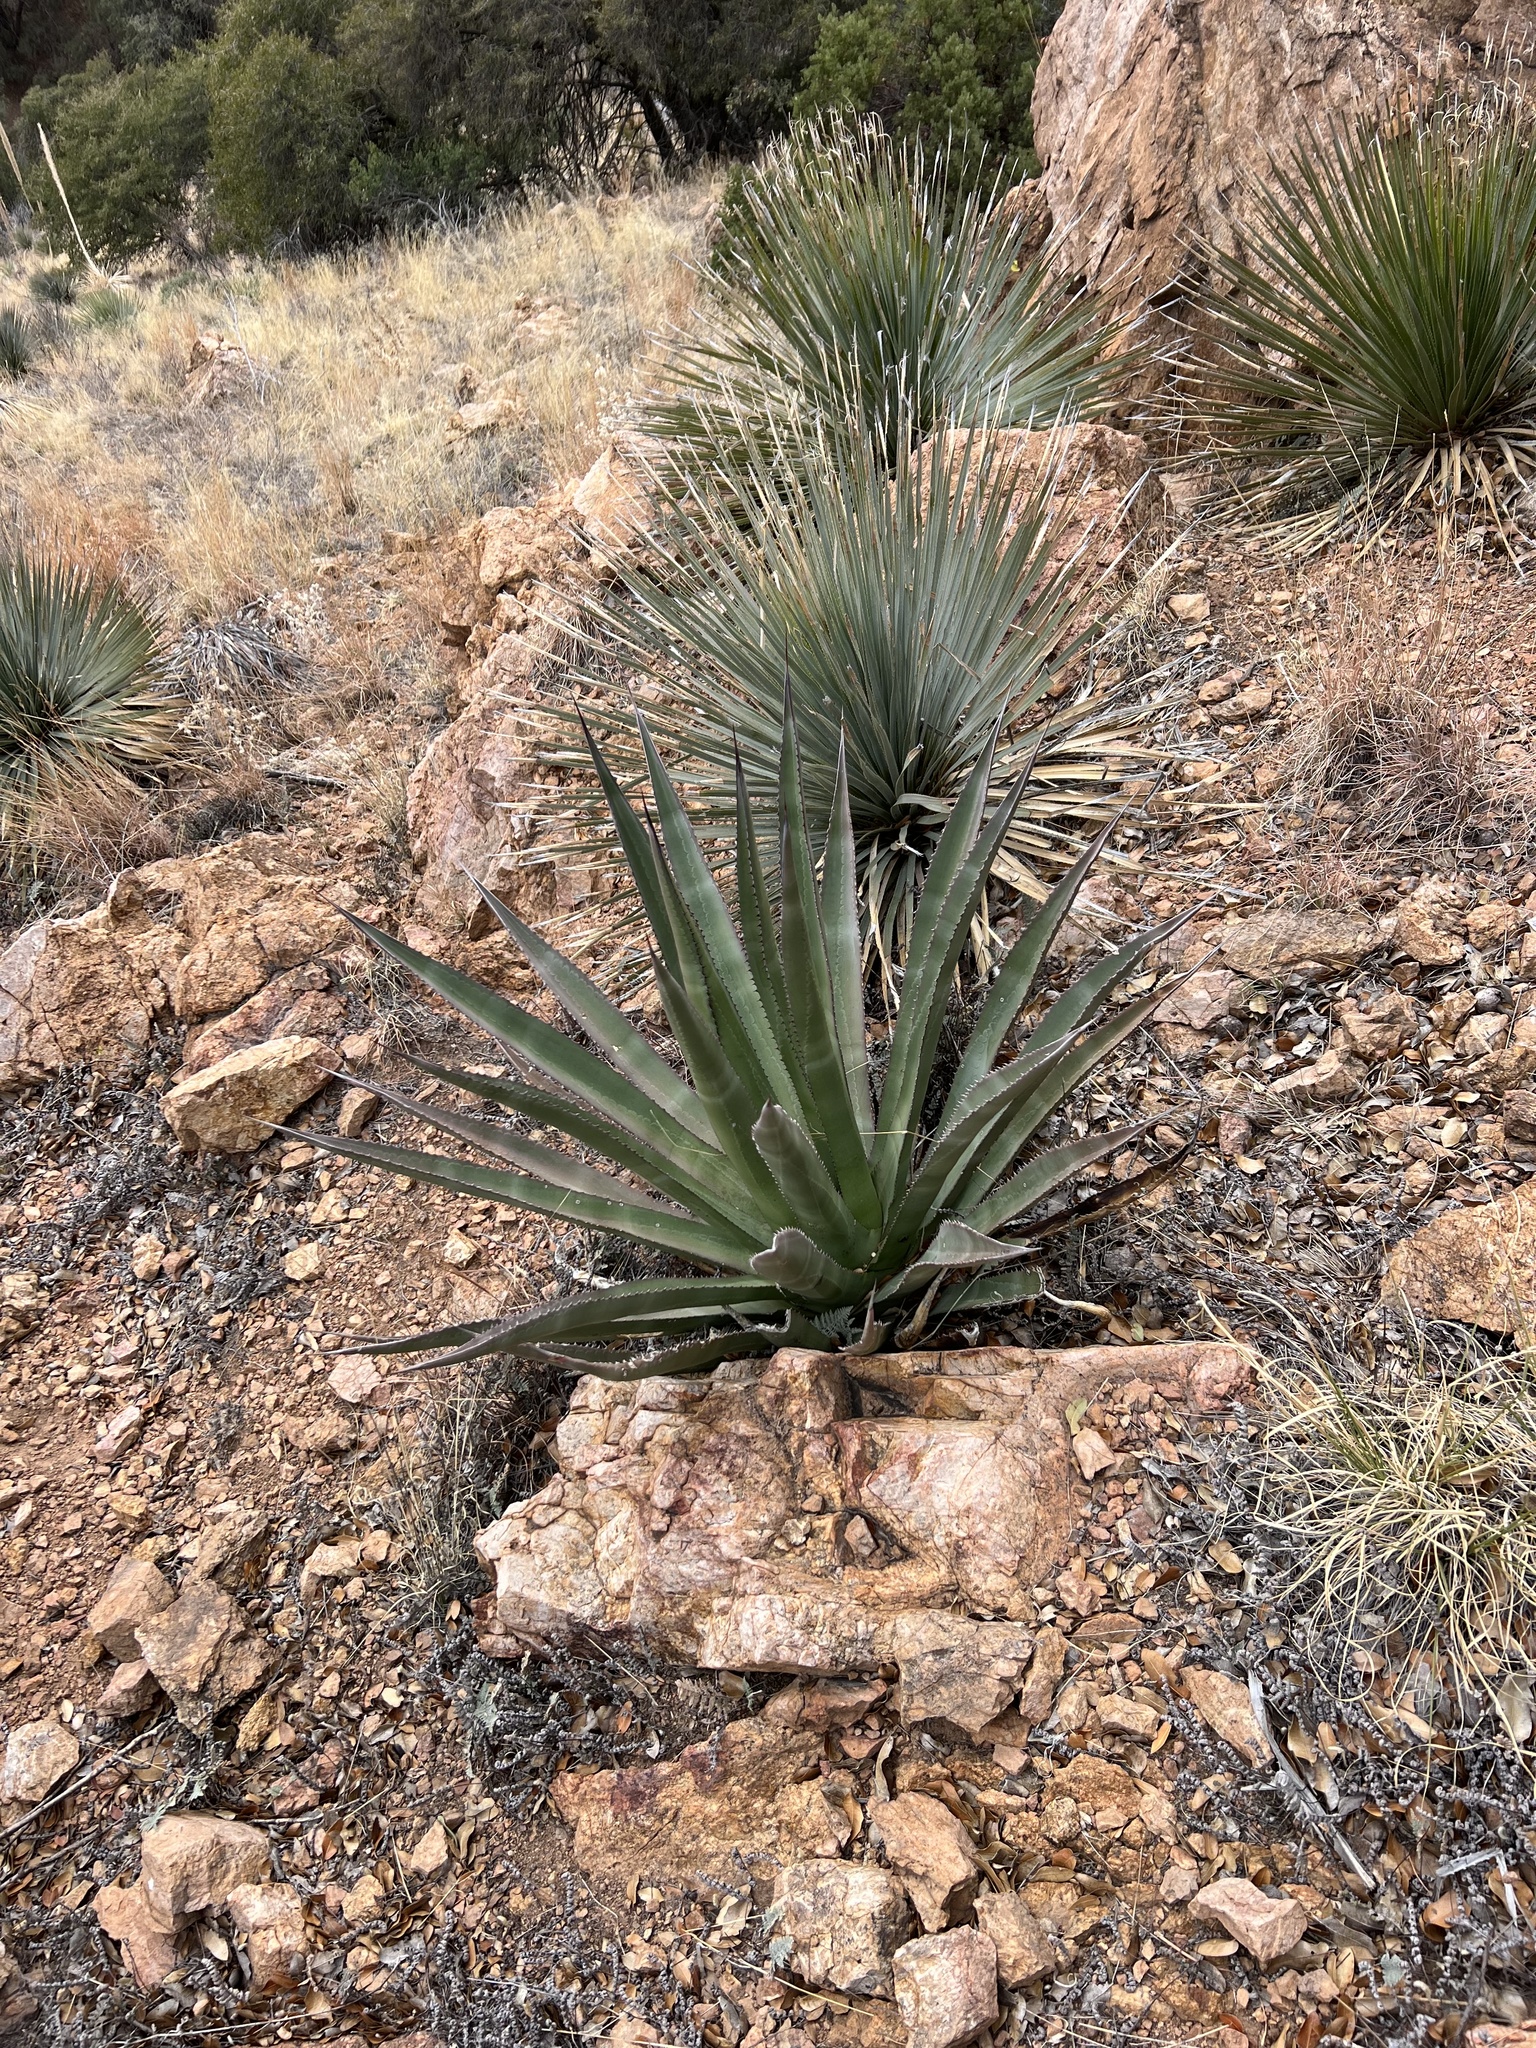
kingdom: Plantae
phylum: Tracheophyta
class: Liliopsida
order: Asparagales
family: Asparagaceae
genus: Agave
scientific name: Agave palmeri
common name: Palmer agave
